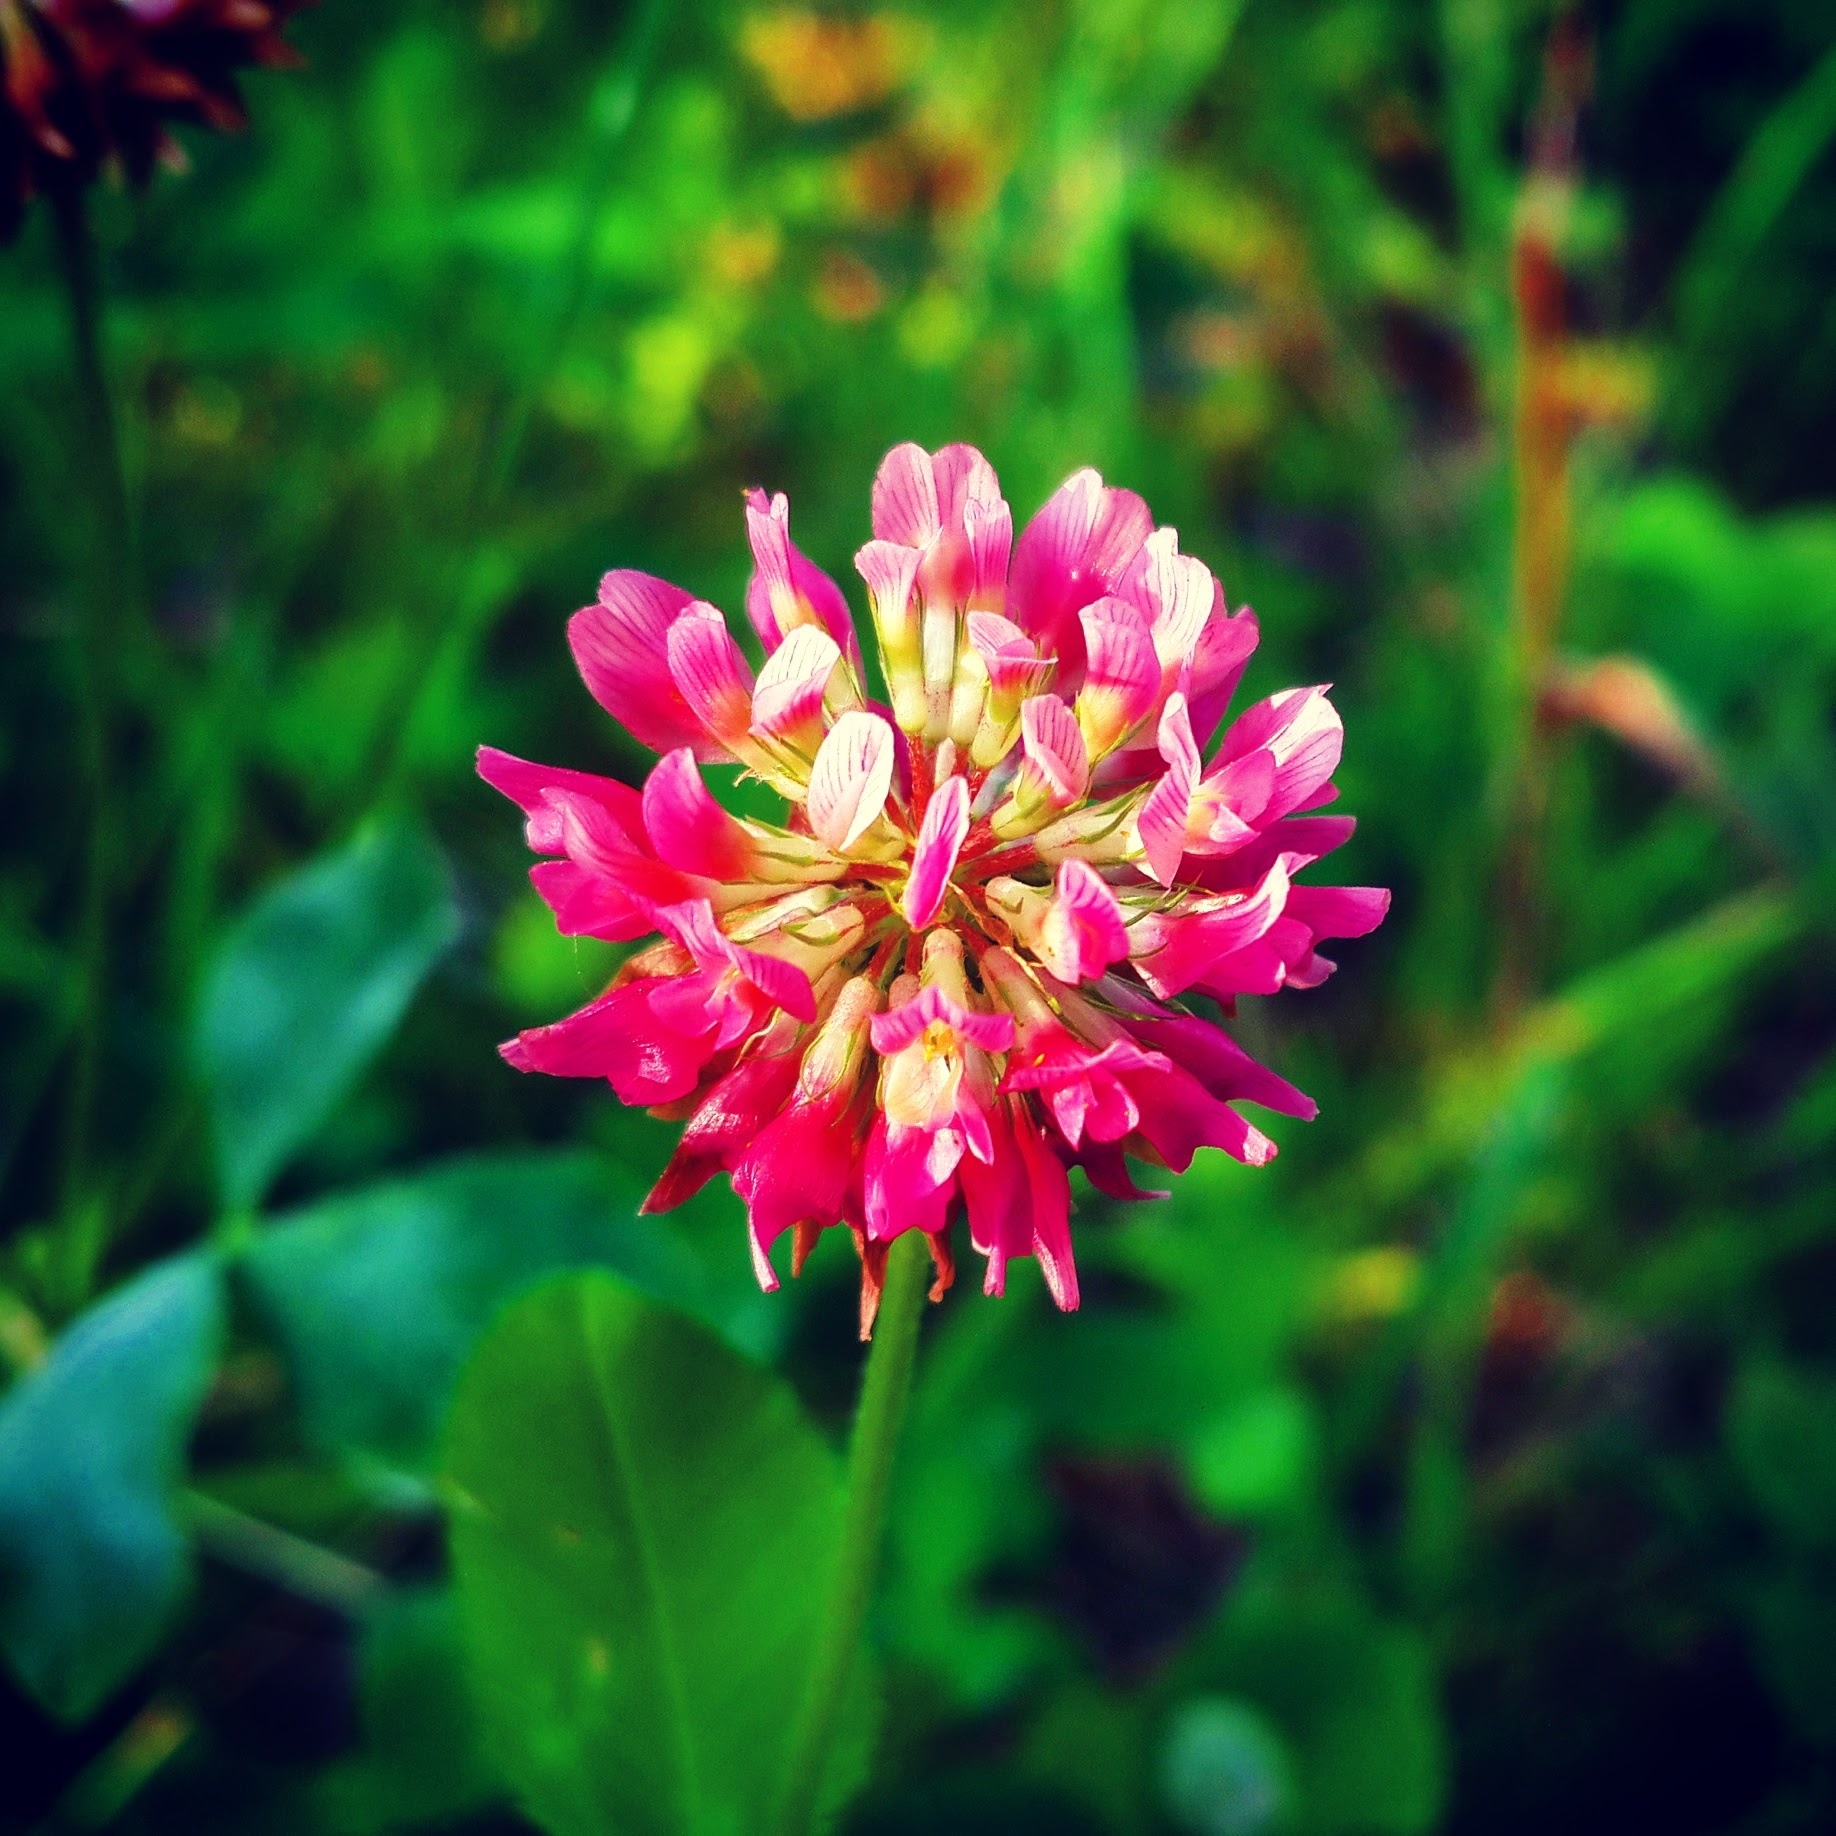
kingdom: Plantae
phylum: Tracheophyta
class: Magnoliopsida
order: Fabales
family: Fabaceae
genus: Trifolium
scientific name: Trifolium hybridum
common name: Alsike clover
